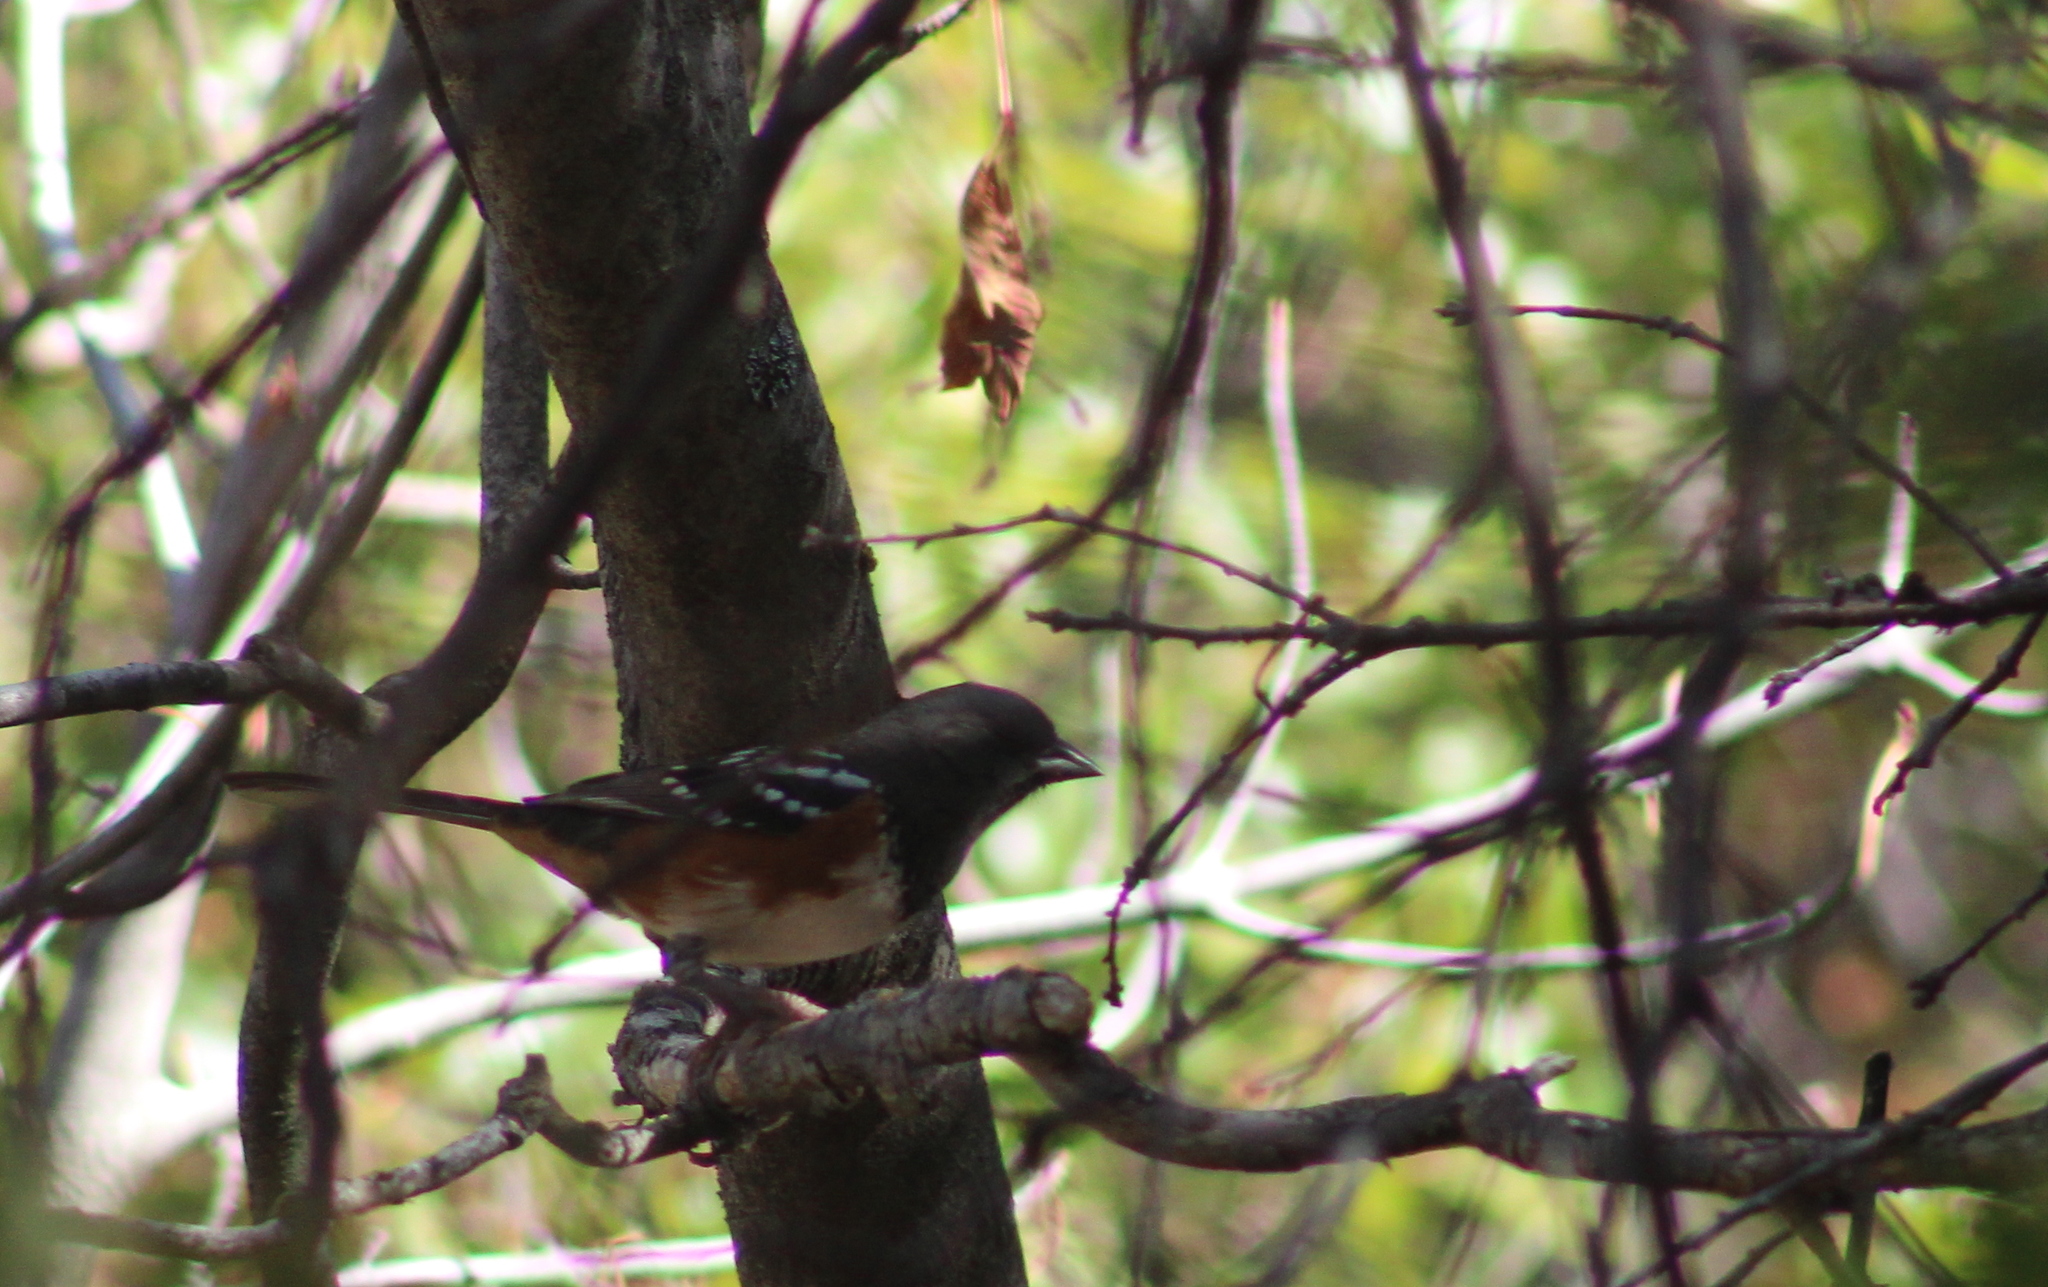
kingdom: Animalia
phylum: Chordata
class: Aves
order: Passeriformes
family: Passerellidae
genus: Pipilo
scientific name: Pipilo maculatus
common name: Spotted towhee
